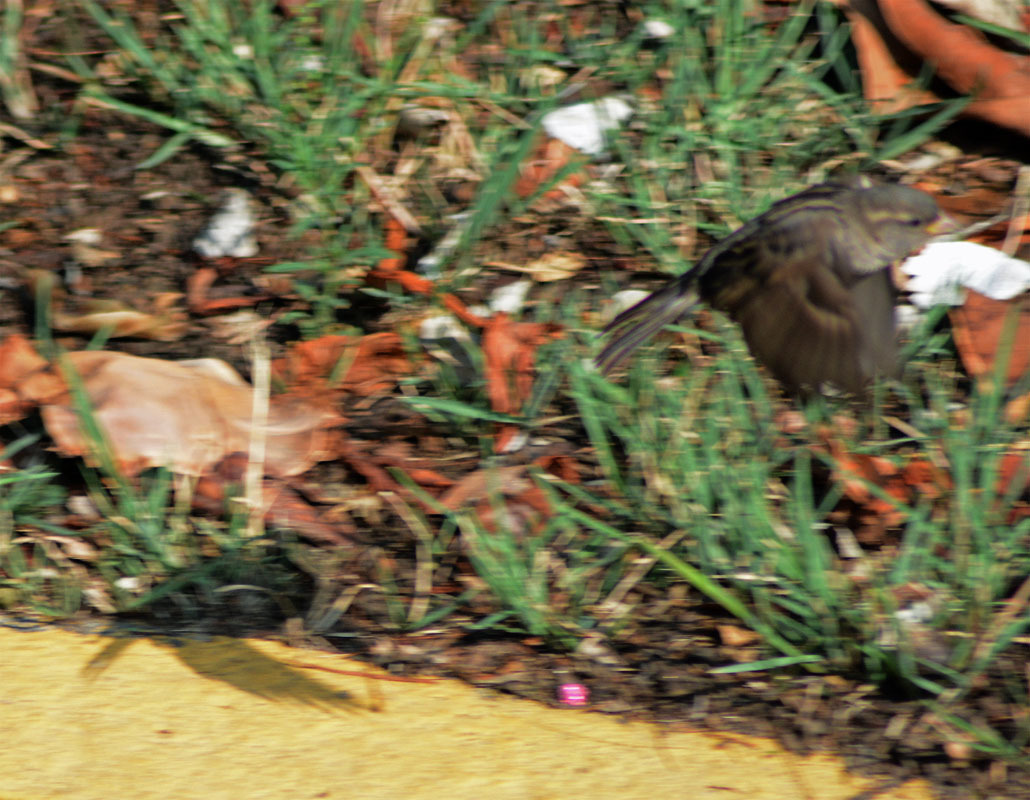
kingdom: Animalia
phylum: Chordata
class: Aves
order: Passeriformes
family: Passeridae
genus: Passer
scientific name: Passer domesticus
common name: House sparrow
